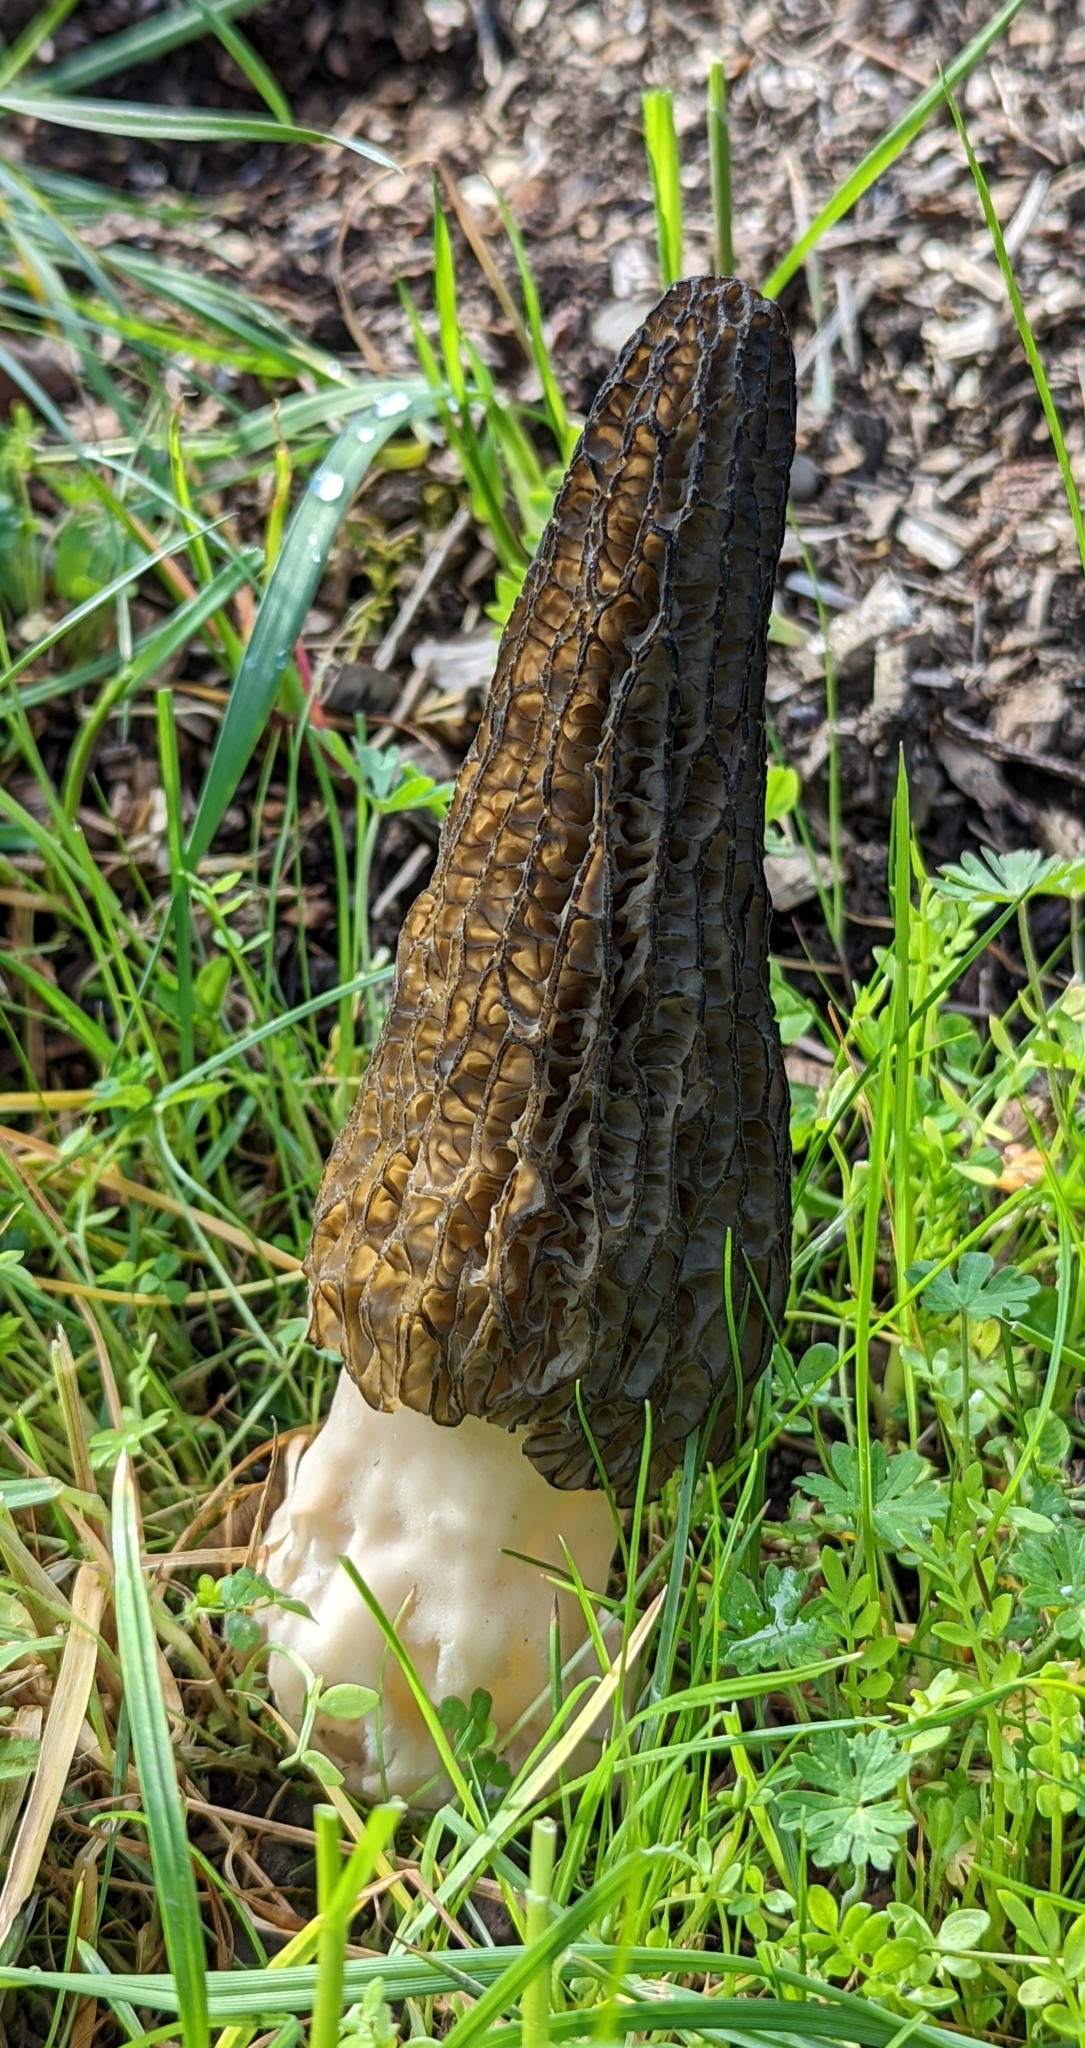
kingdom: Fungi
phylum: Ascomycota
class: Pezizomycetes
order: Pezizales
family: Morchellaceae
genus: Morchella
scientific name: Morchella importuna
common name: Landscaping black morel
